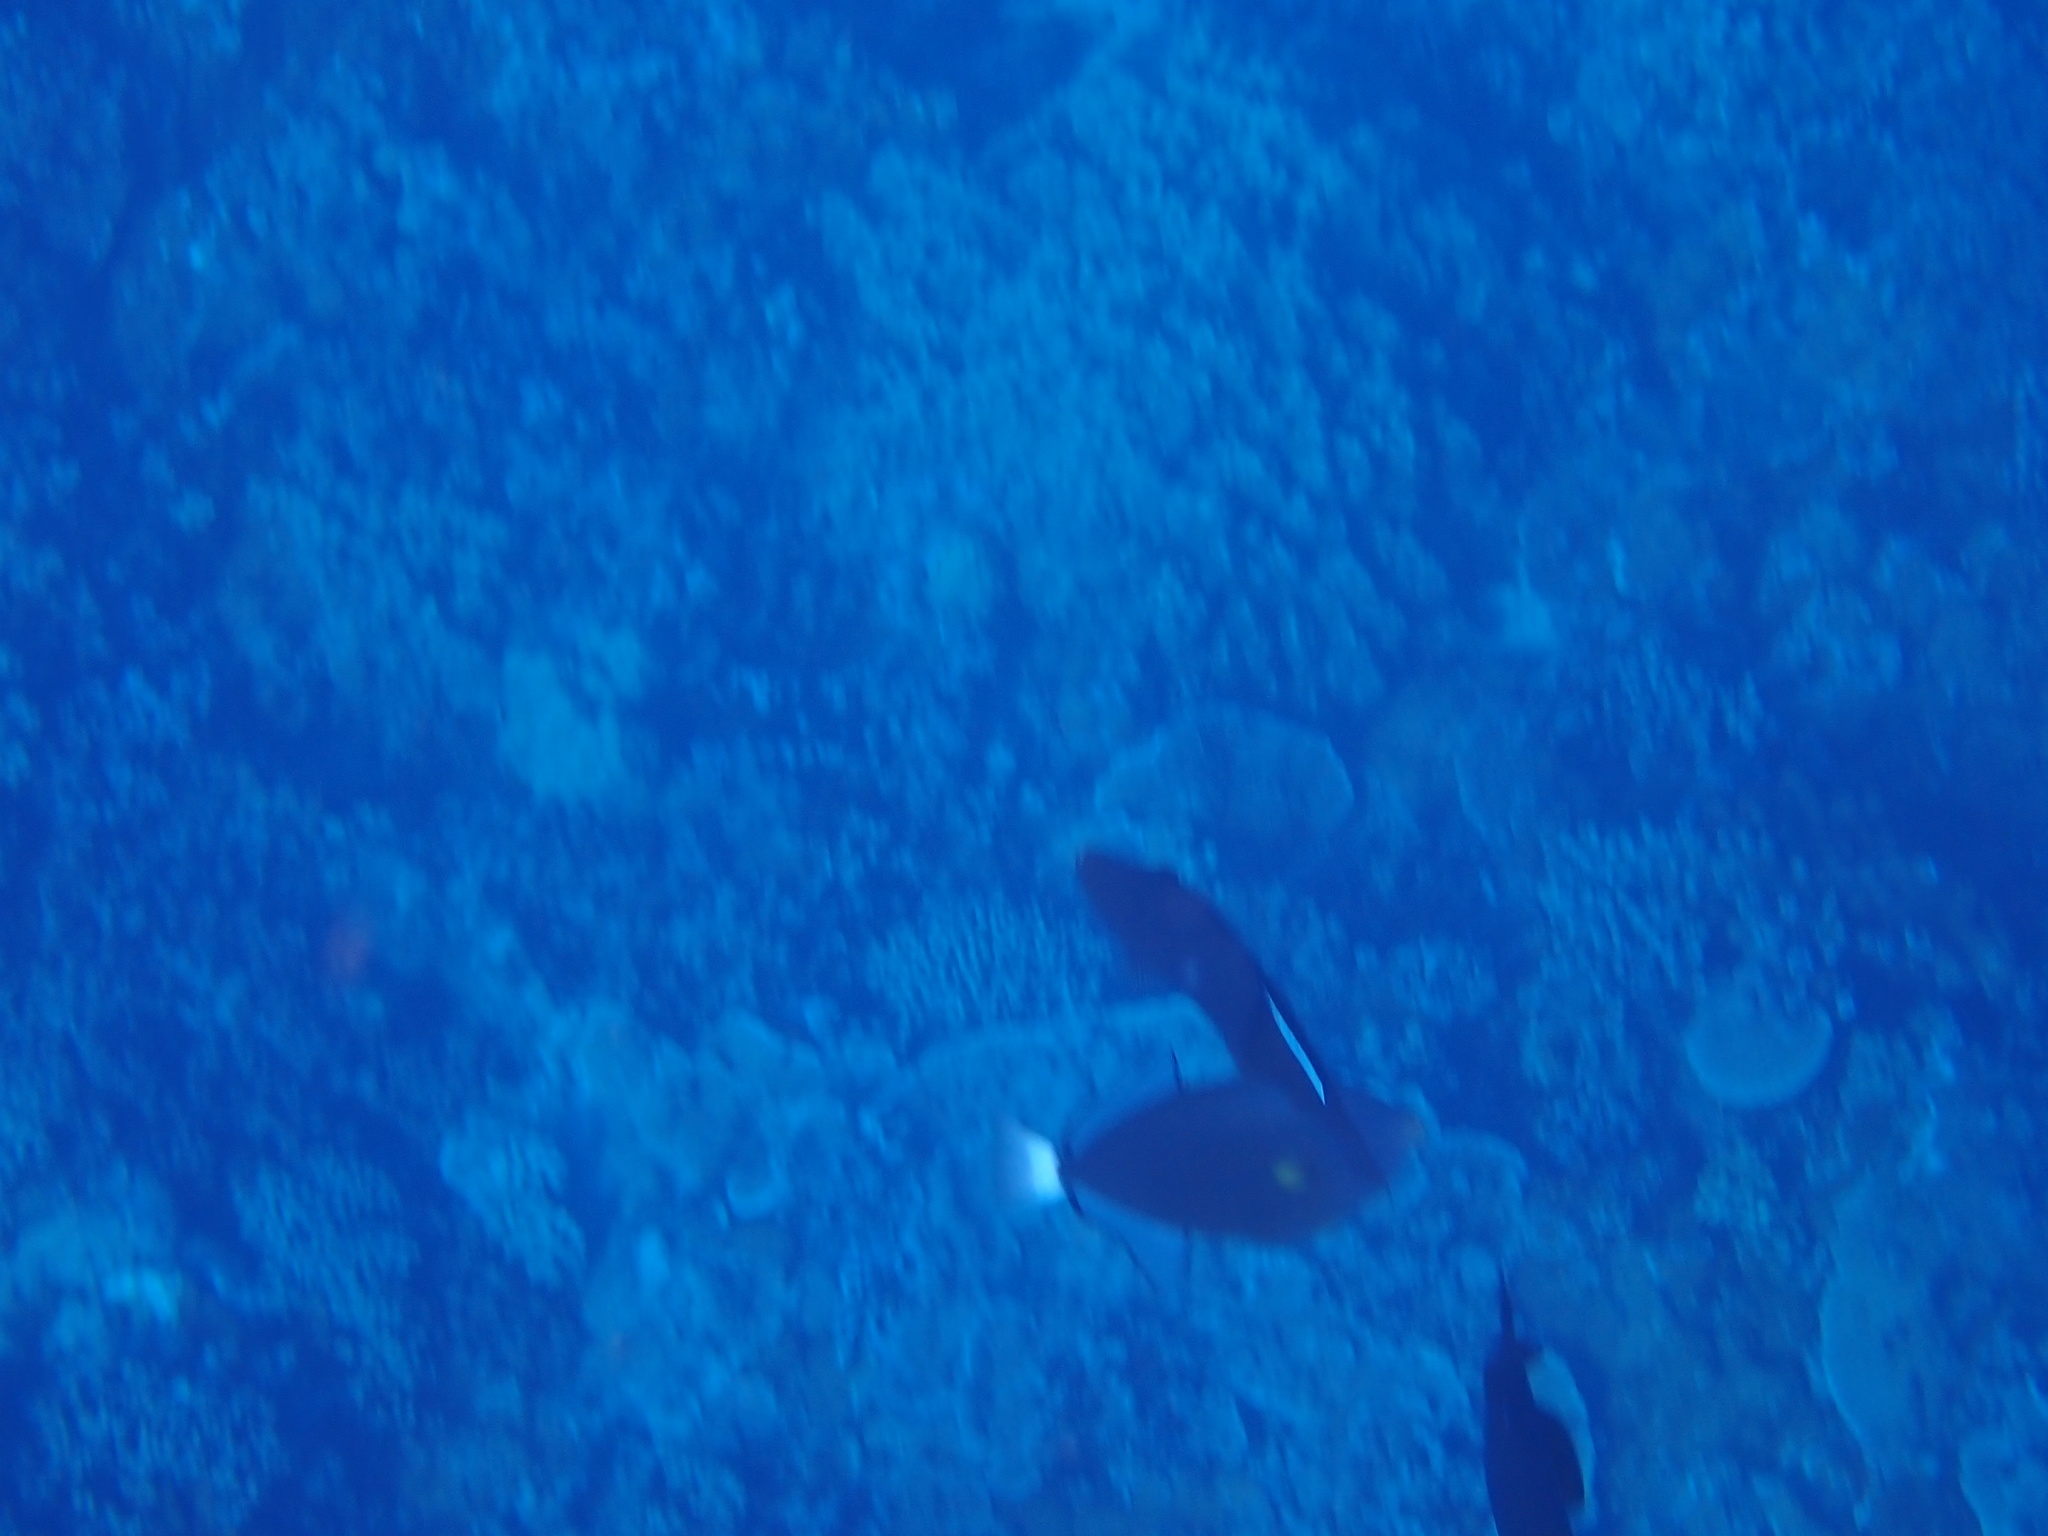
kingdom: Animalia
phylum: Chordata
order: Tetraodontiformes
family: Balistidae
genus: Melichthys
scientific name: Melichthys vidua
